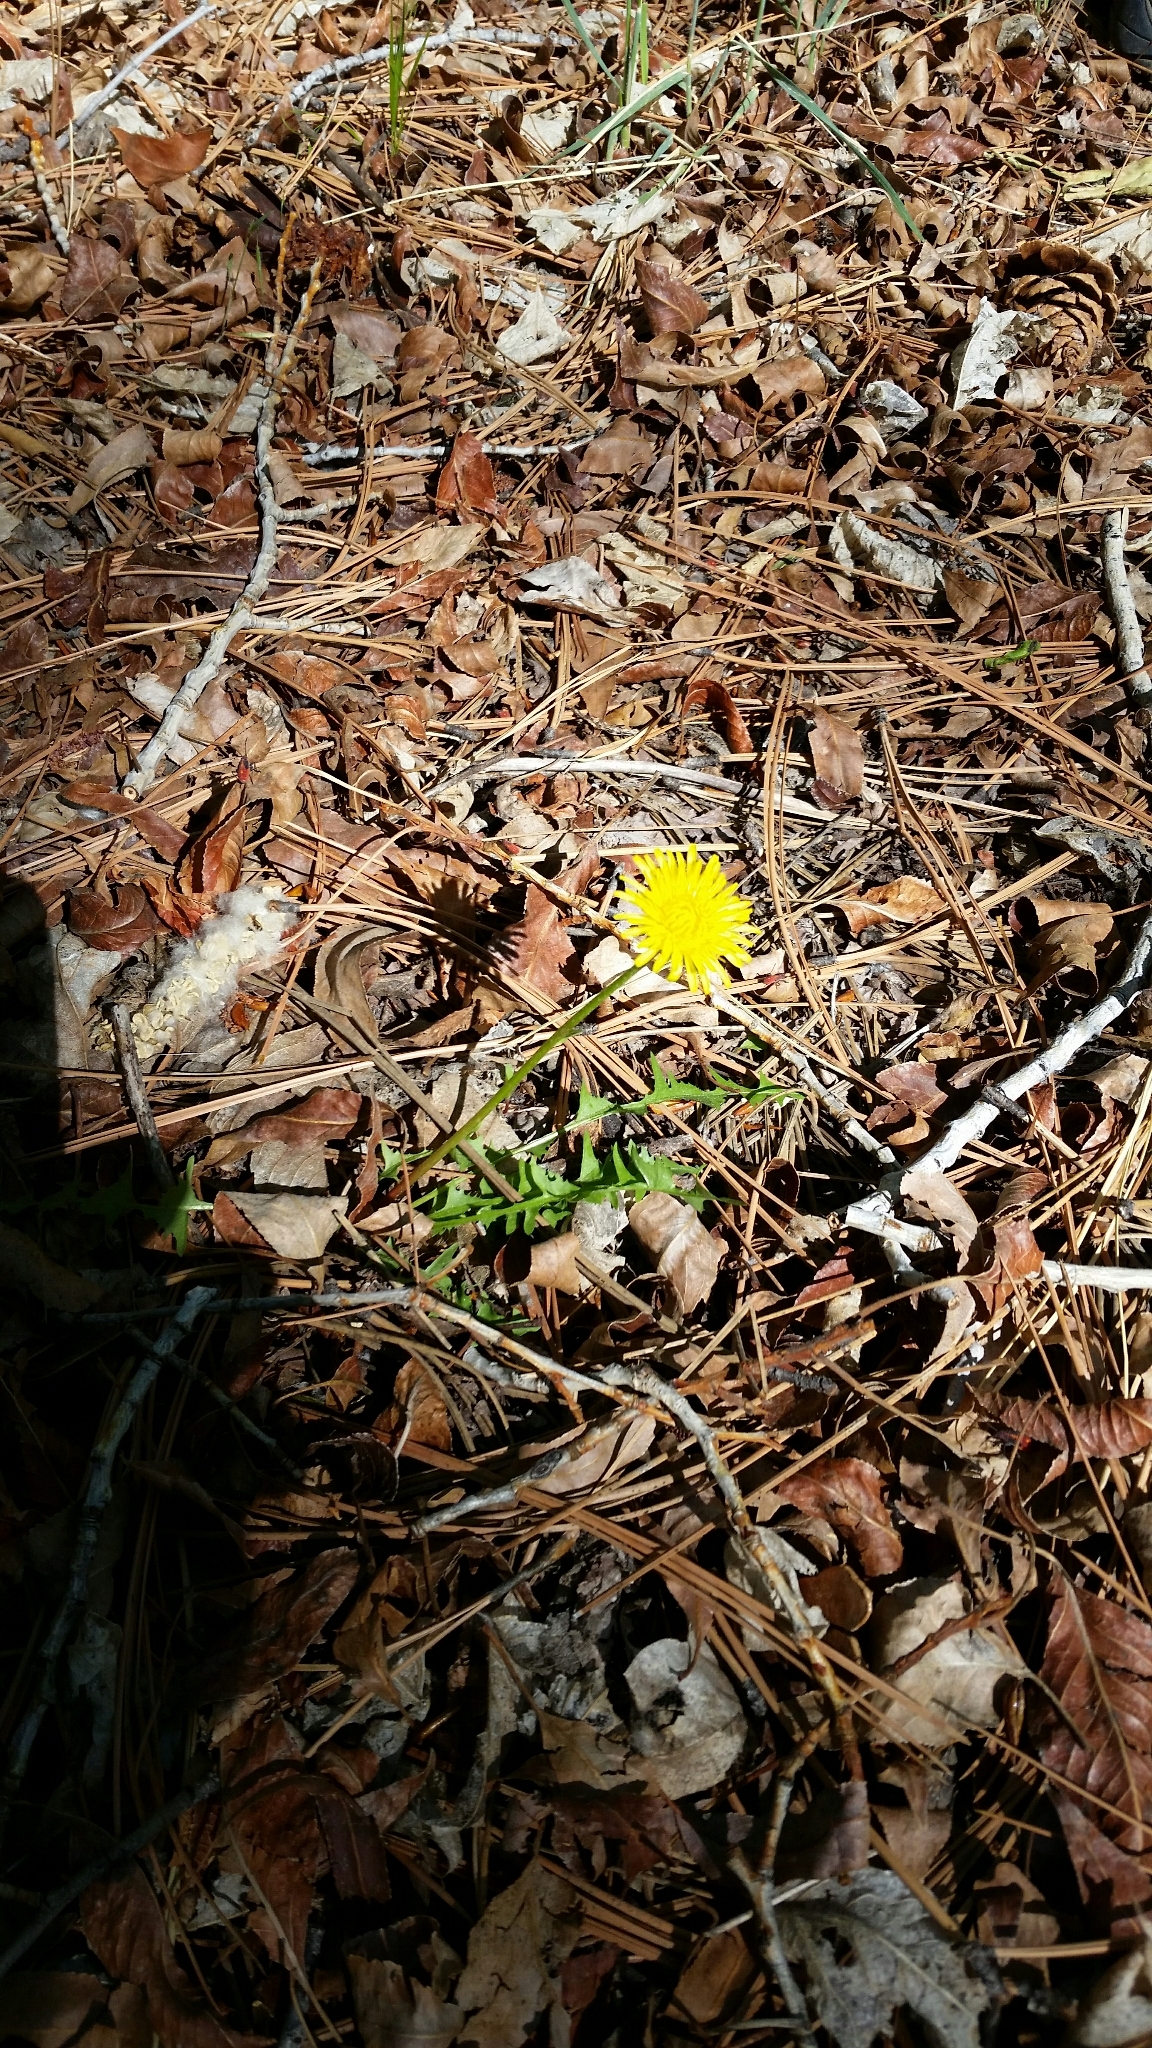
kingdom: Plantae
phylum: Tracheophyta
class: Magnoliopsida
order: Asterales
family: Asteraceae
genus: Taraxacum
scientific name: Taraxacum officinale
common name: Common dandelion
